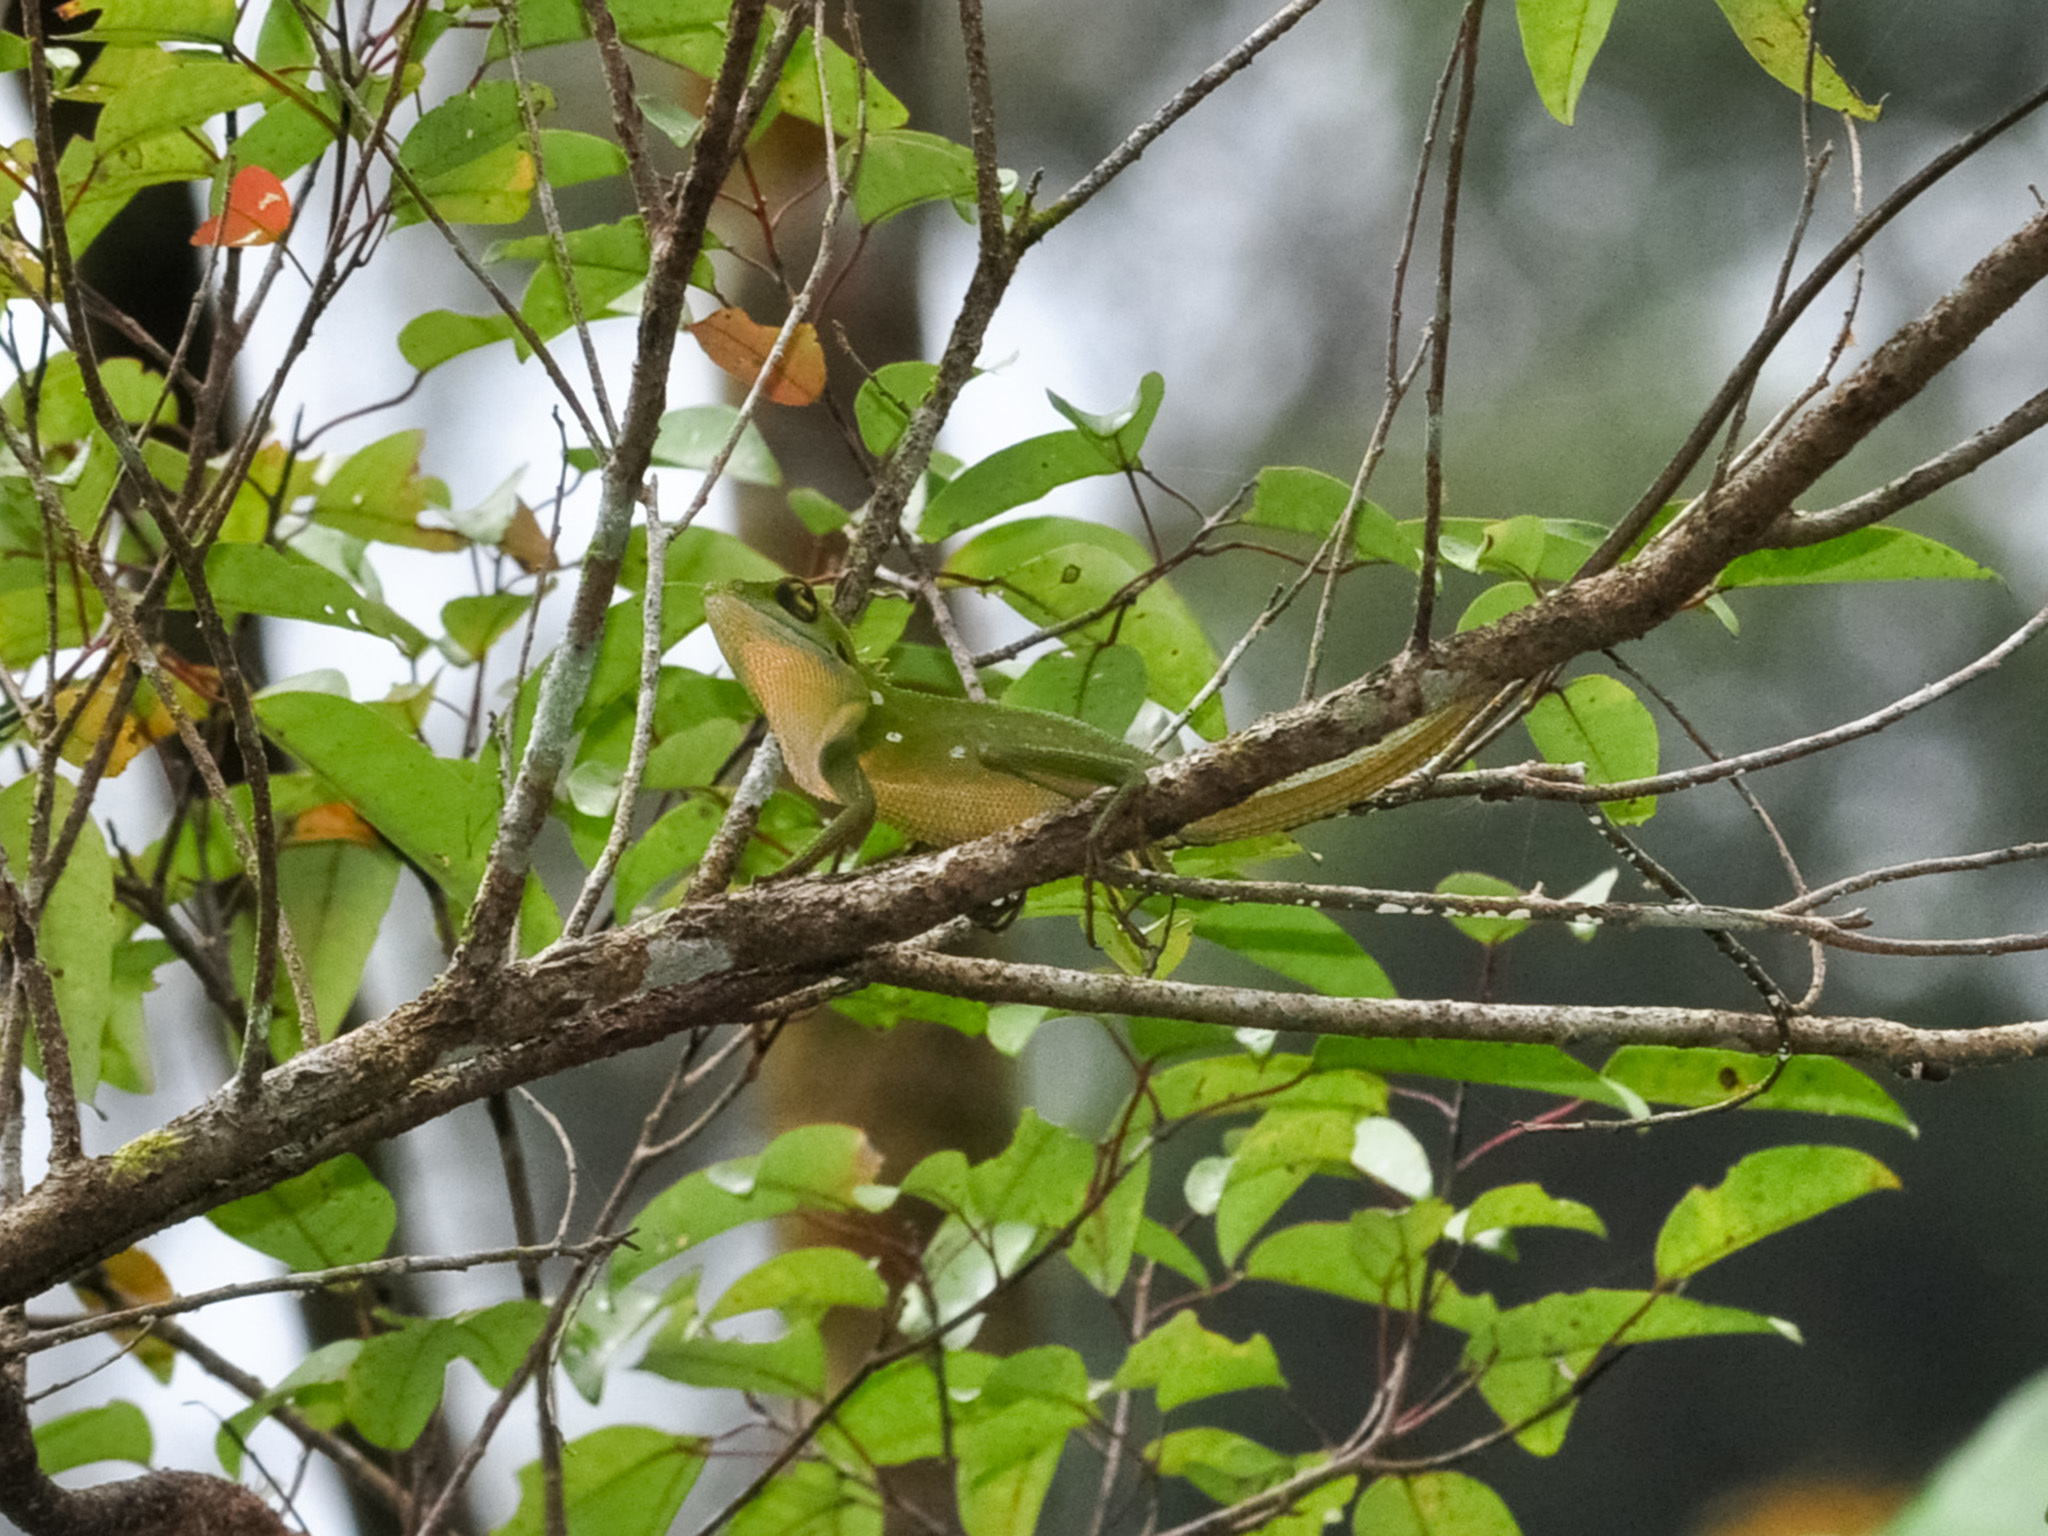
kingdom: Animalia
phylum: Chordata
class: Squamata
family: Agamidae
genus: Bronchocela
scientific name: Bronchocela cristatella
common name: Green crested lizard
